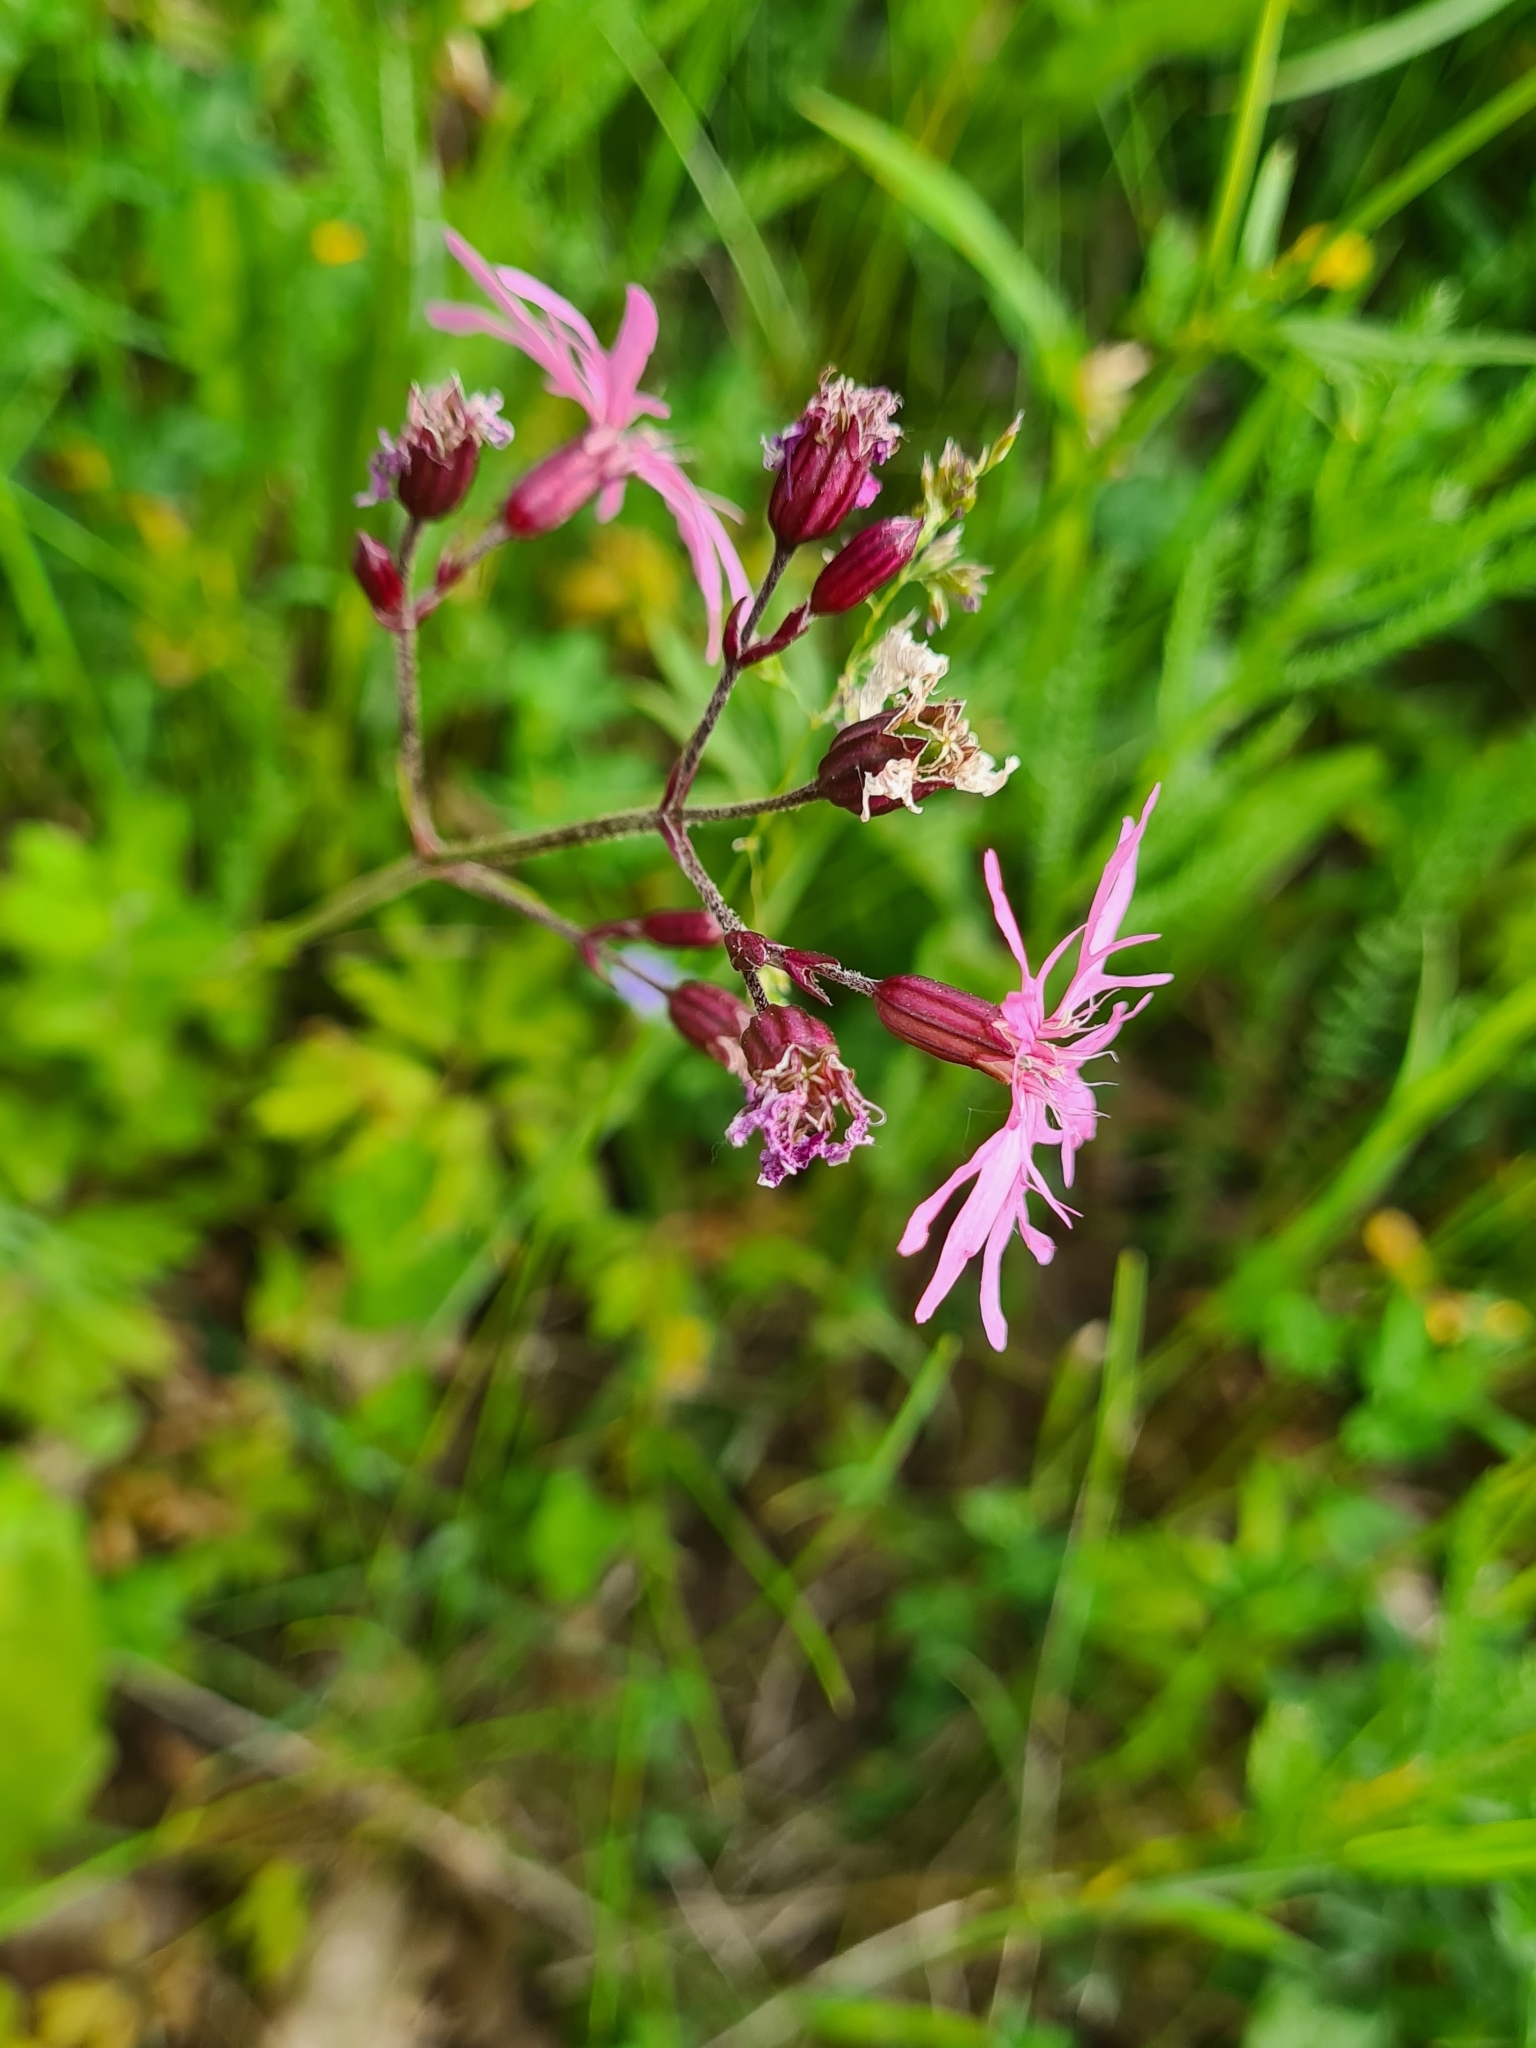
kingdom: Plantae
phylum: Tracheophyta
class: Magnoliopsida
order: Caryophyllales
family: Caryophyllaceae
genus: Silene
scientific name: Silene flos-cuculi
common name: Ragged-robin
